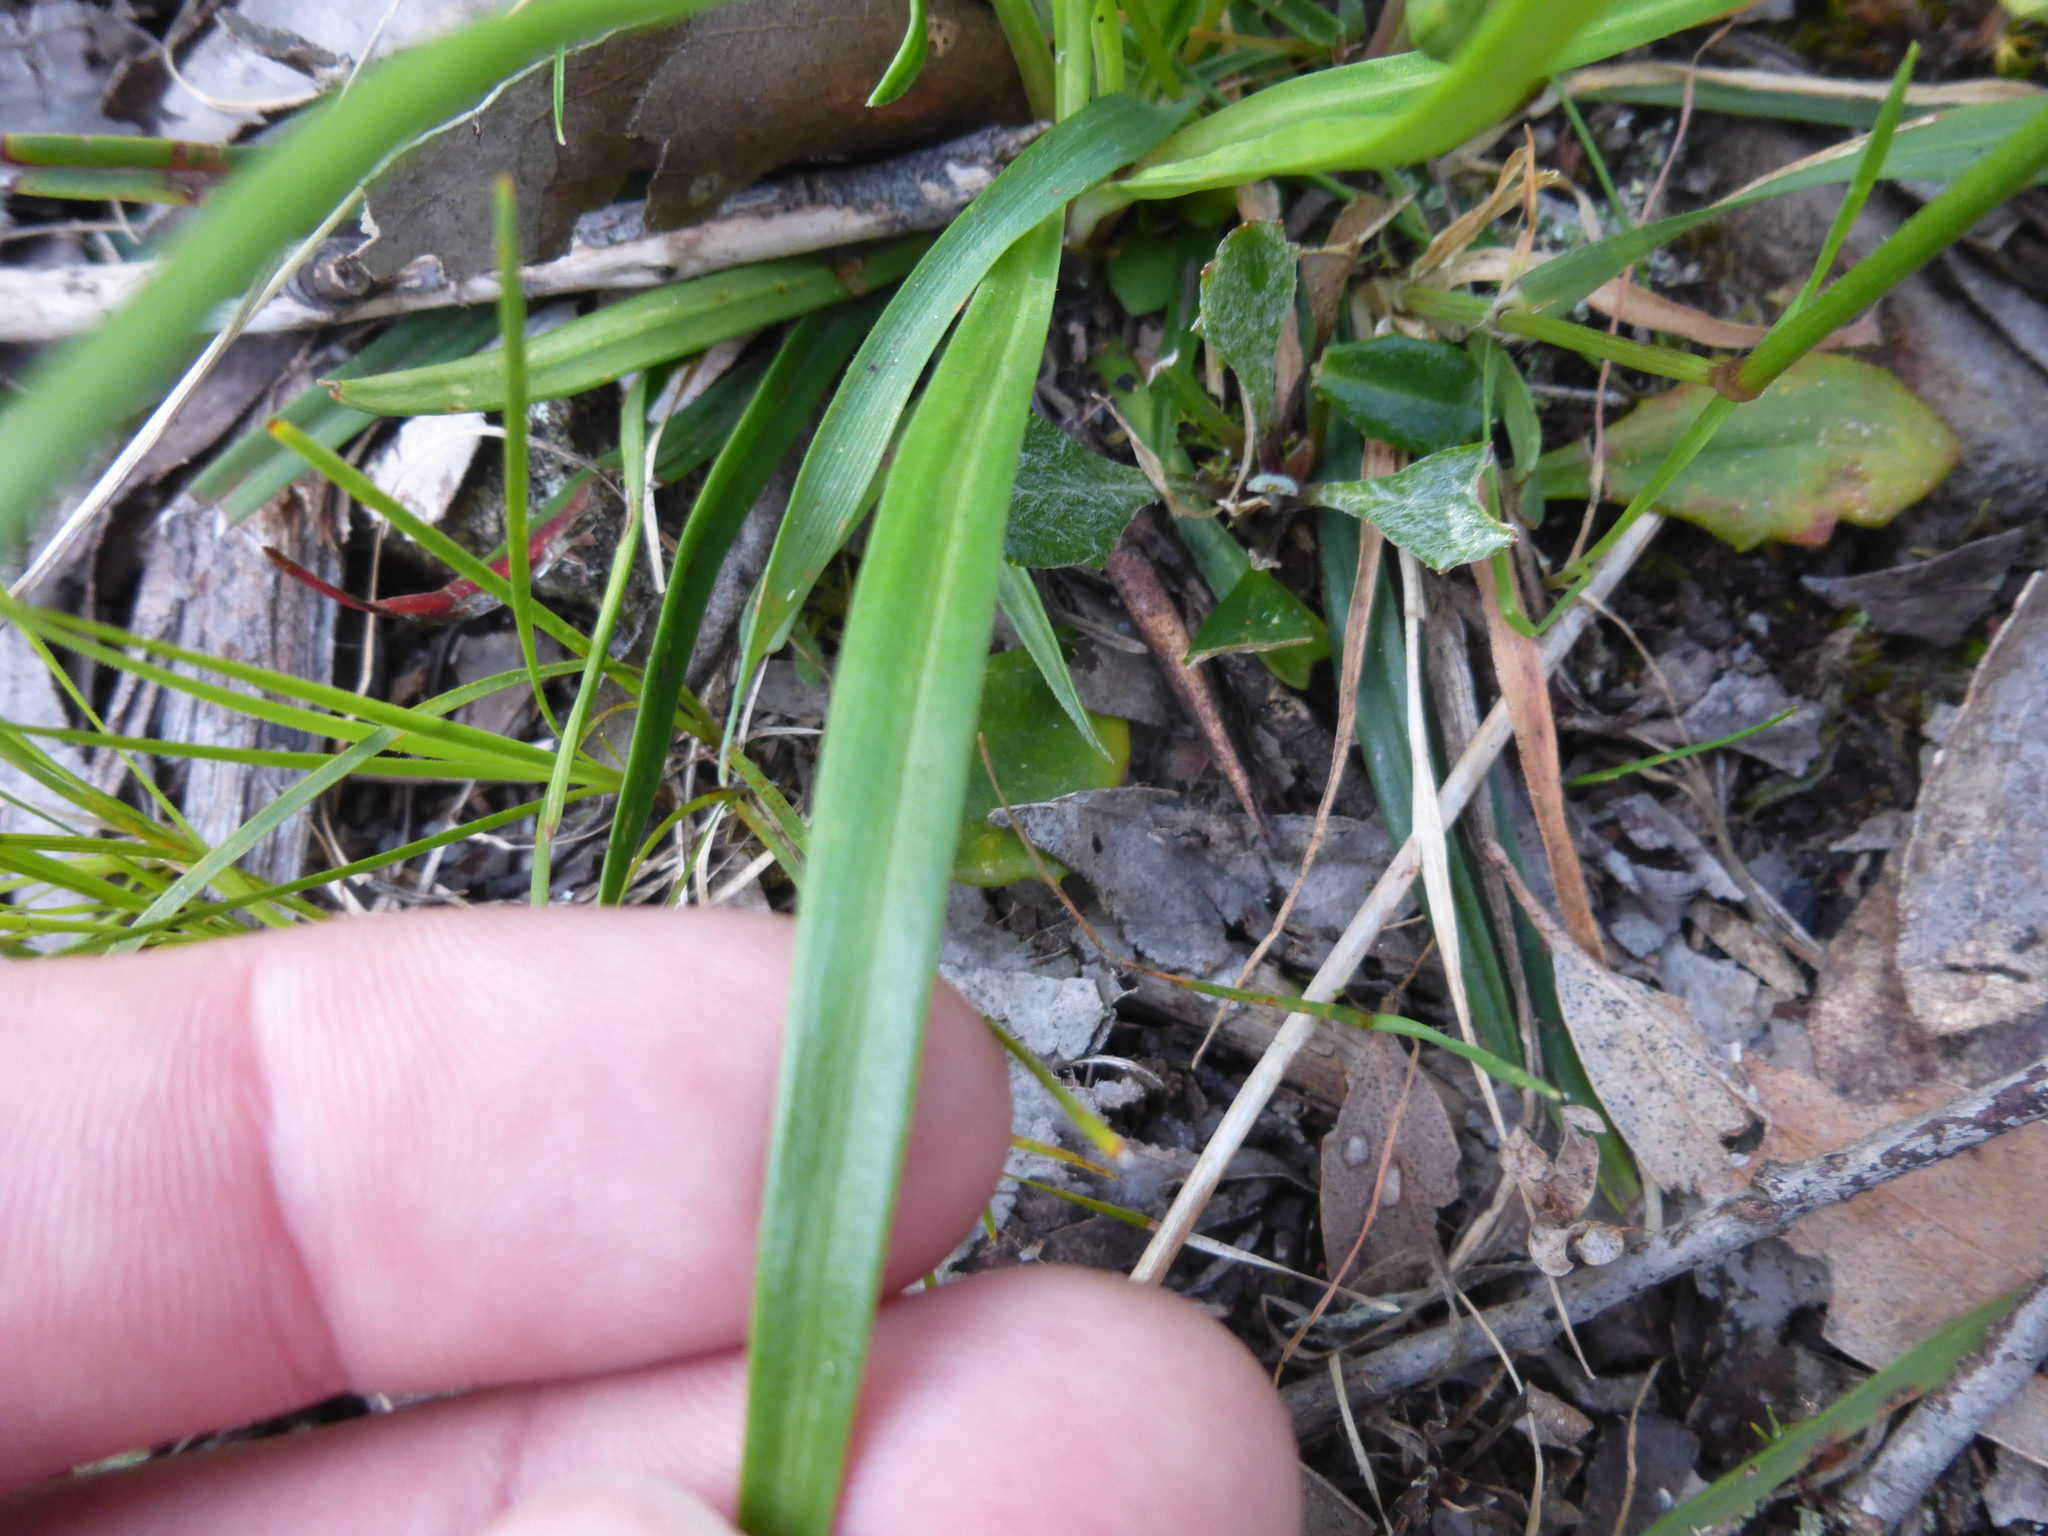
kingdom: Plantae
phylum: Tracheophyta
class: Magnoliopsida
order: Asterales
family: Stylidiaceae
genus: Stylidium
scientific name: Stylidium armeria
